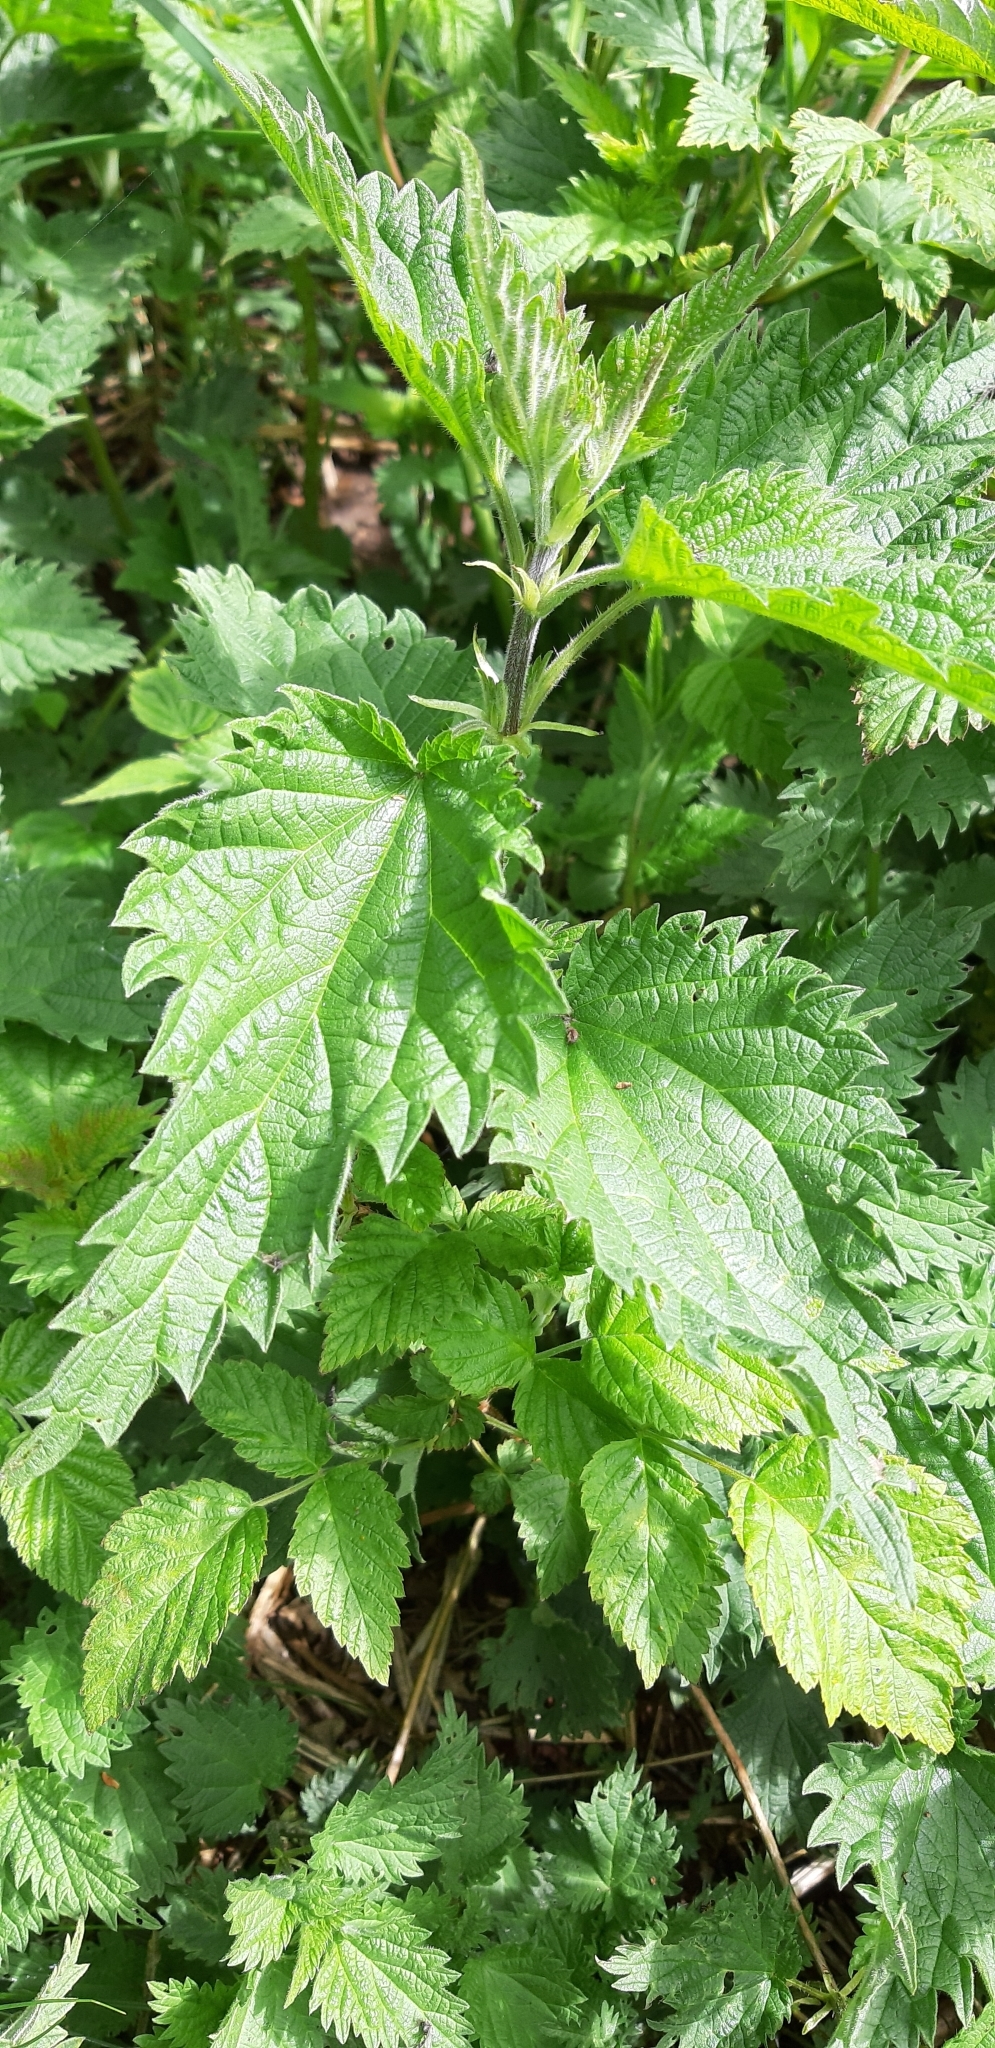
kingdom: Plantae
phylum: Tracheophyta
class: Magnoliopsida
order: Rosales
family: Urticaceae
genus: Urtica
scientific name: Urtica dioica
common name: Common nettle
